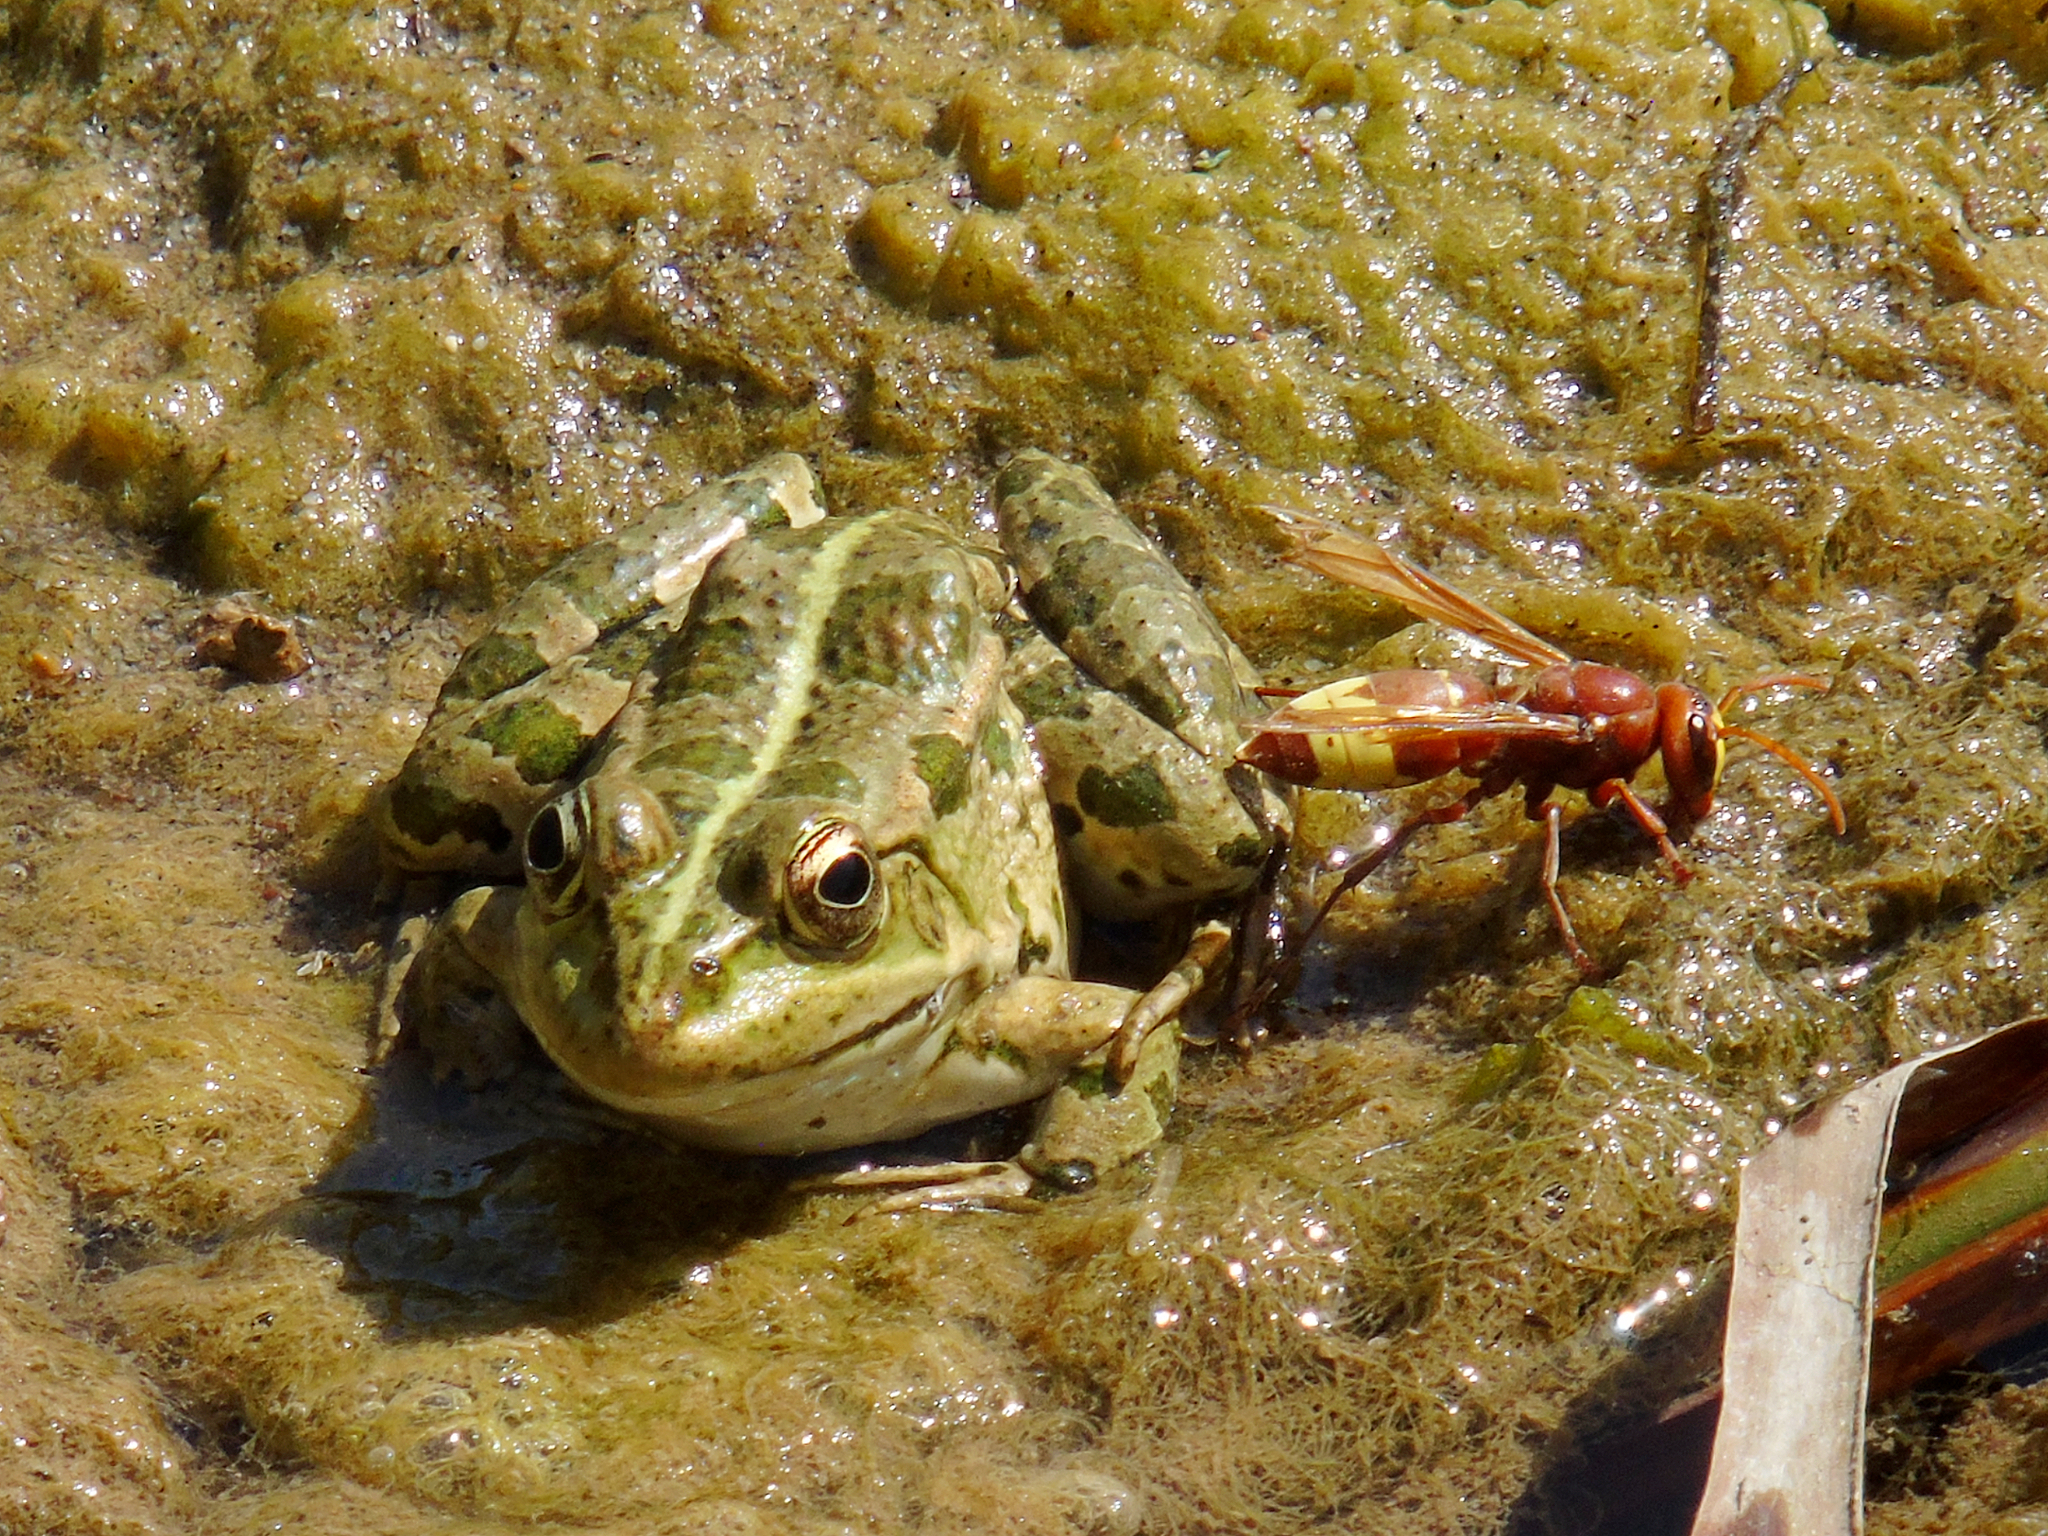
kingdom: Animalia
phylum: Chordata
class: Amphibia
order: Anura
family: Ranidae
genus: Pelophylax
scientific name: Pelophylax ridibundus
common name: Marsh frog
